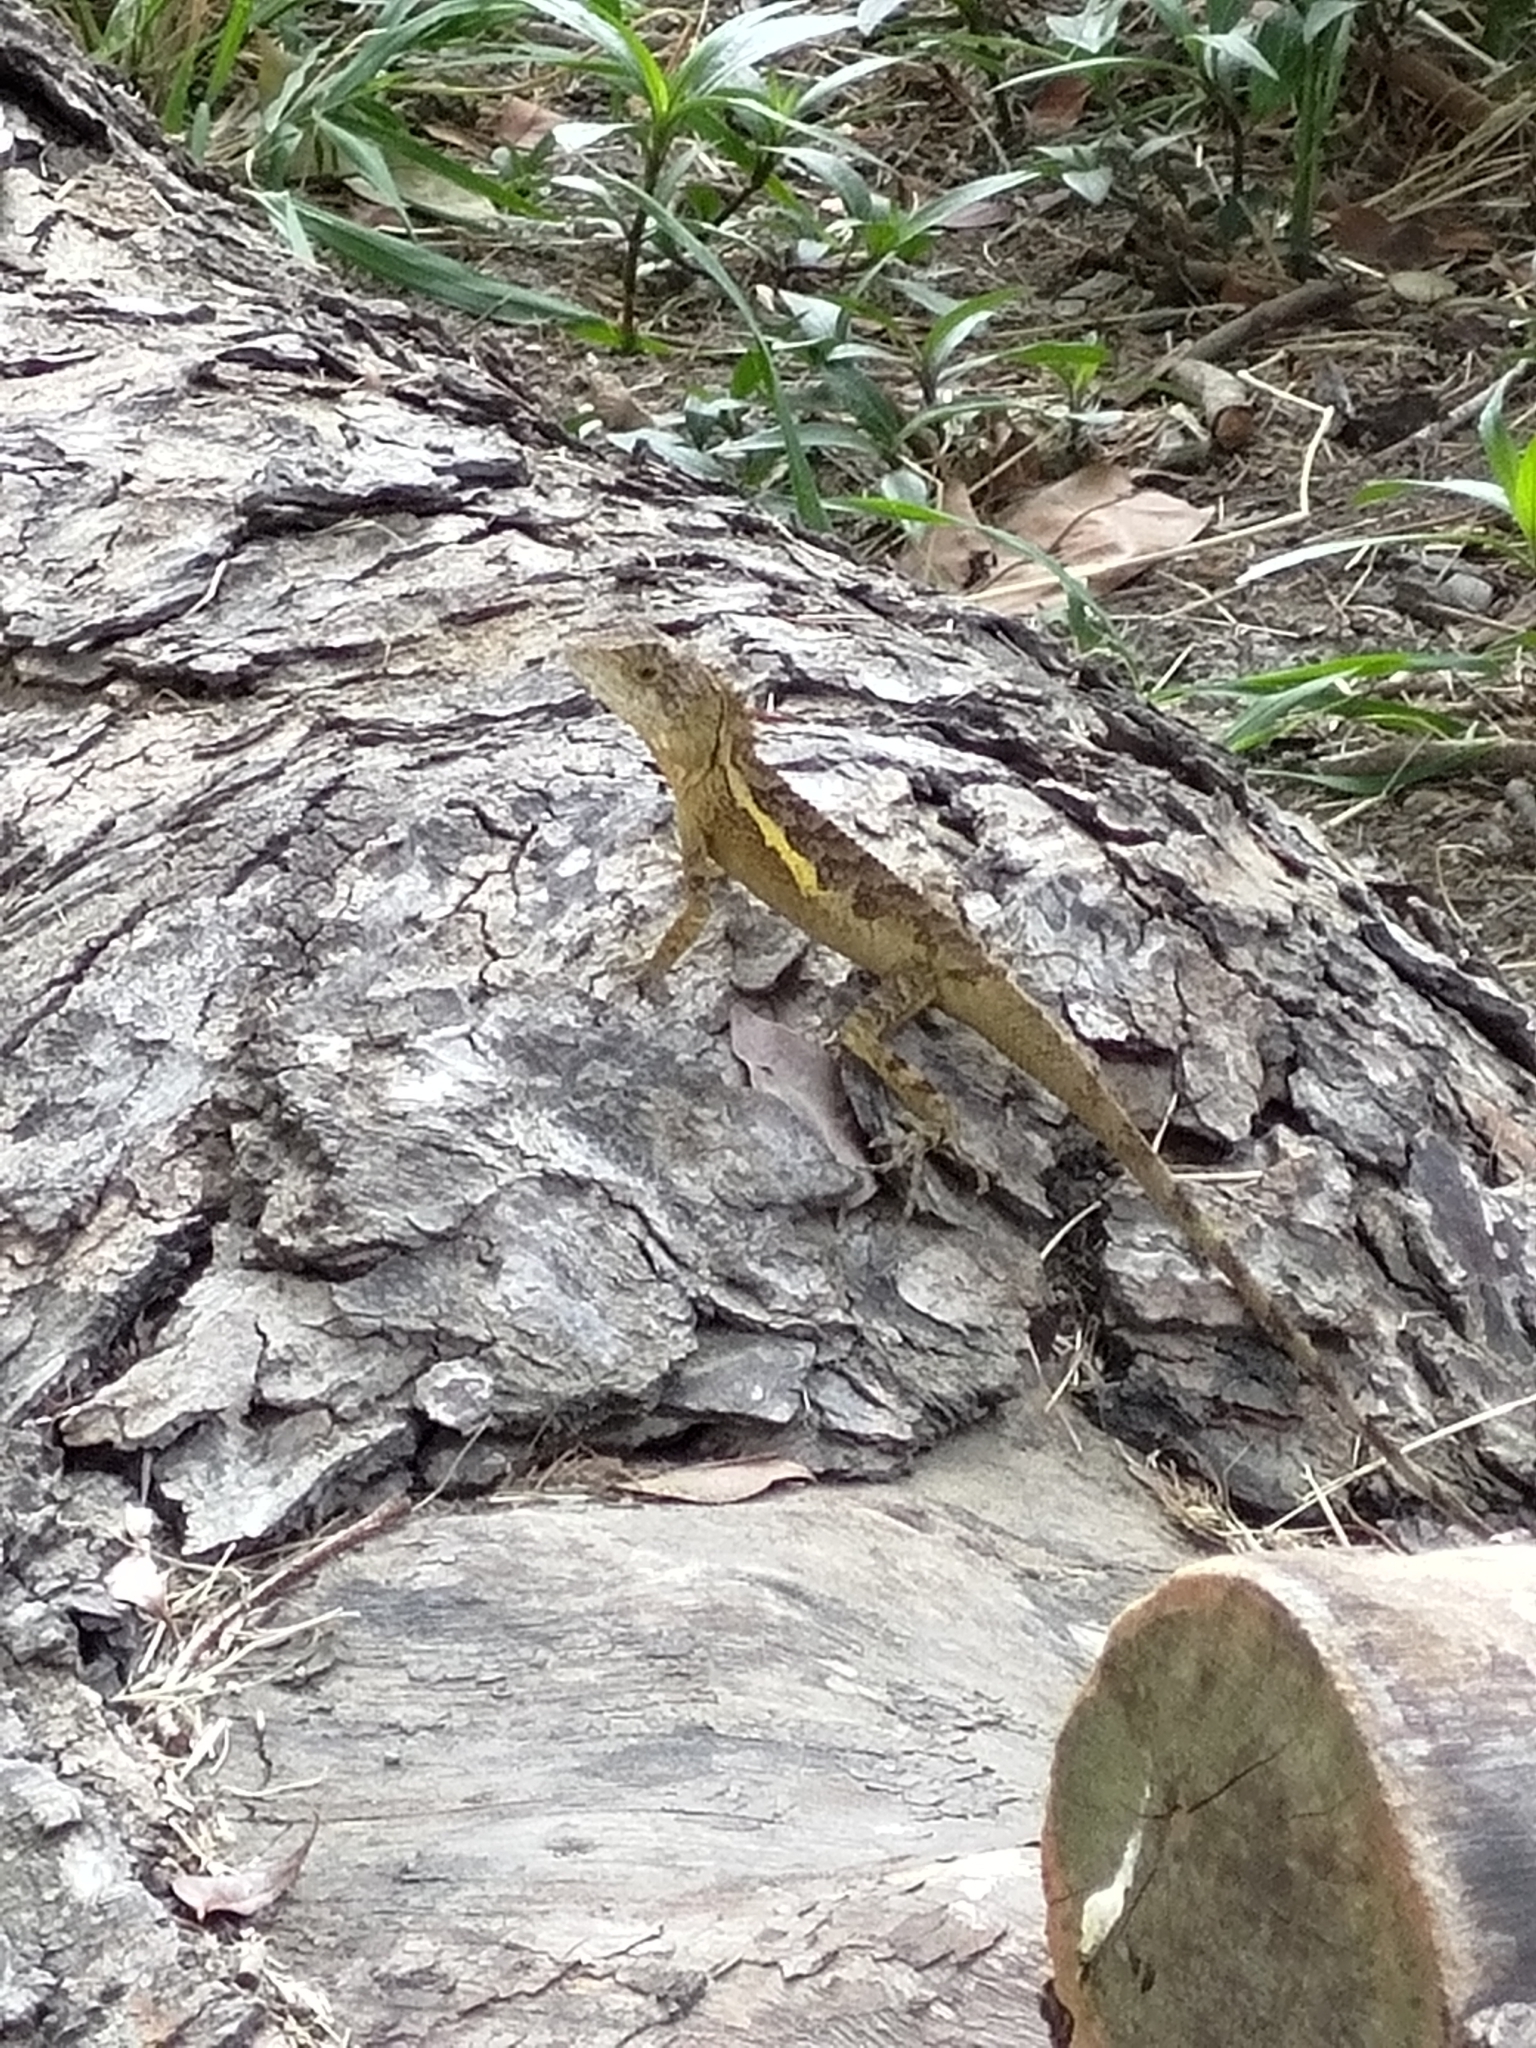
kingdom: Animalia
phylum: Chordata
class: Squamata
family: Agamidae
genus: Diploderma
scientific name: Diploderma swinhonis
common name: Taiwan japalure
